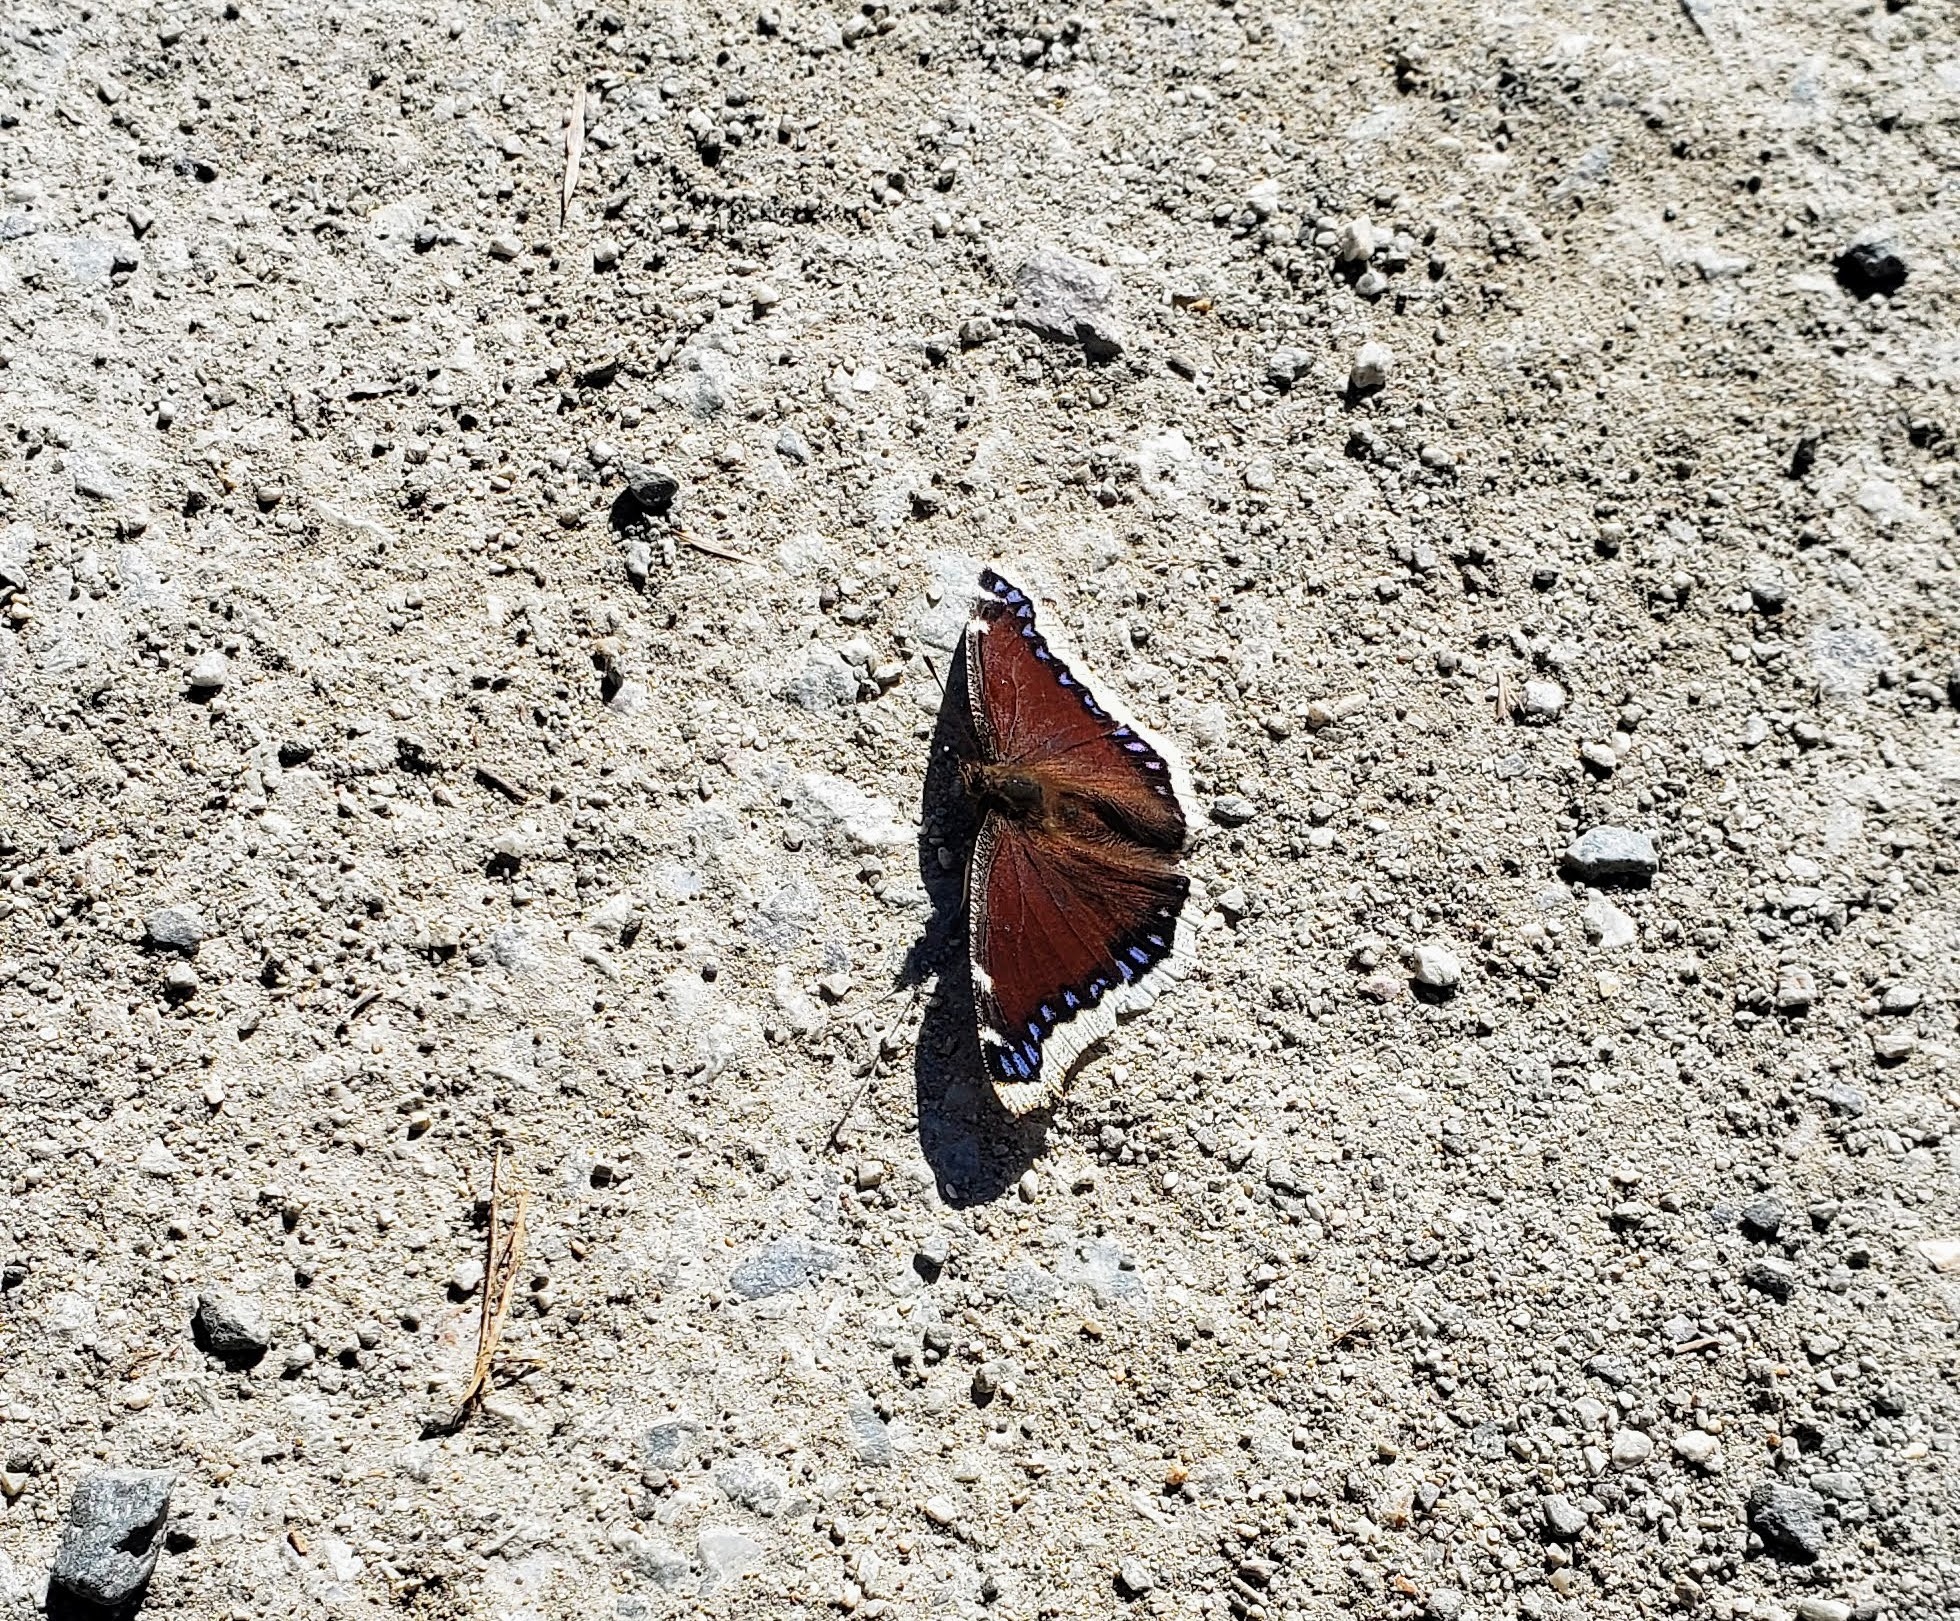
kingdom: Animalia
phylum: Arthropoda
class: Insecta
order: Lepidoptera
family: Nymphalidae
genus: Nymphalis
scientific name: Nymphalis antiopa
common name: Camberwell beauty
